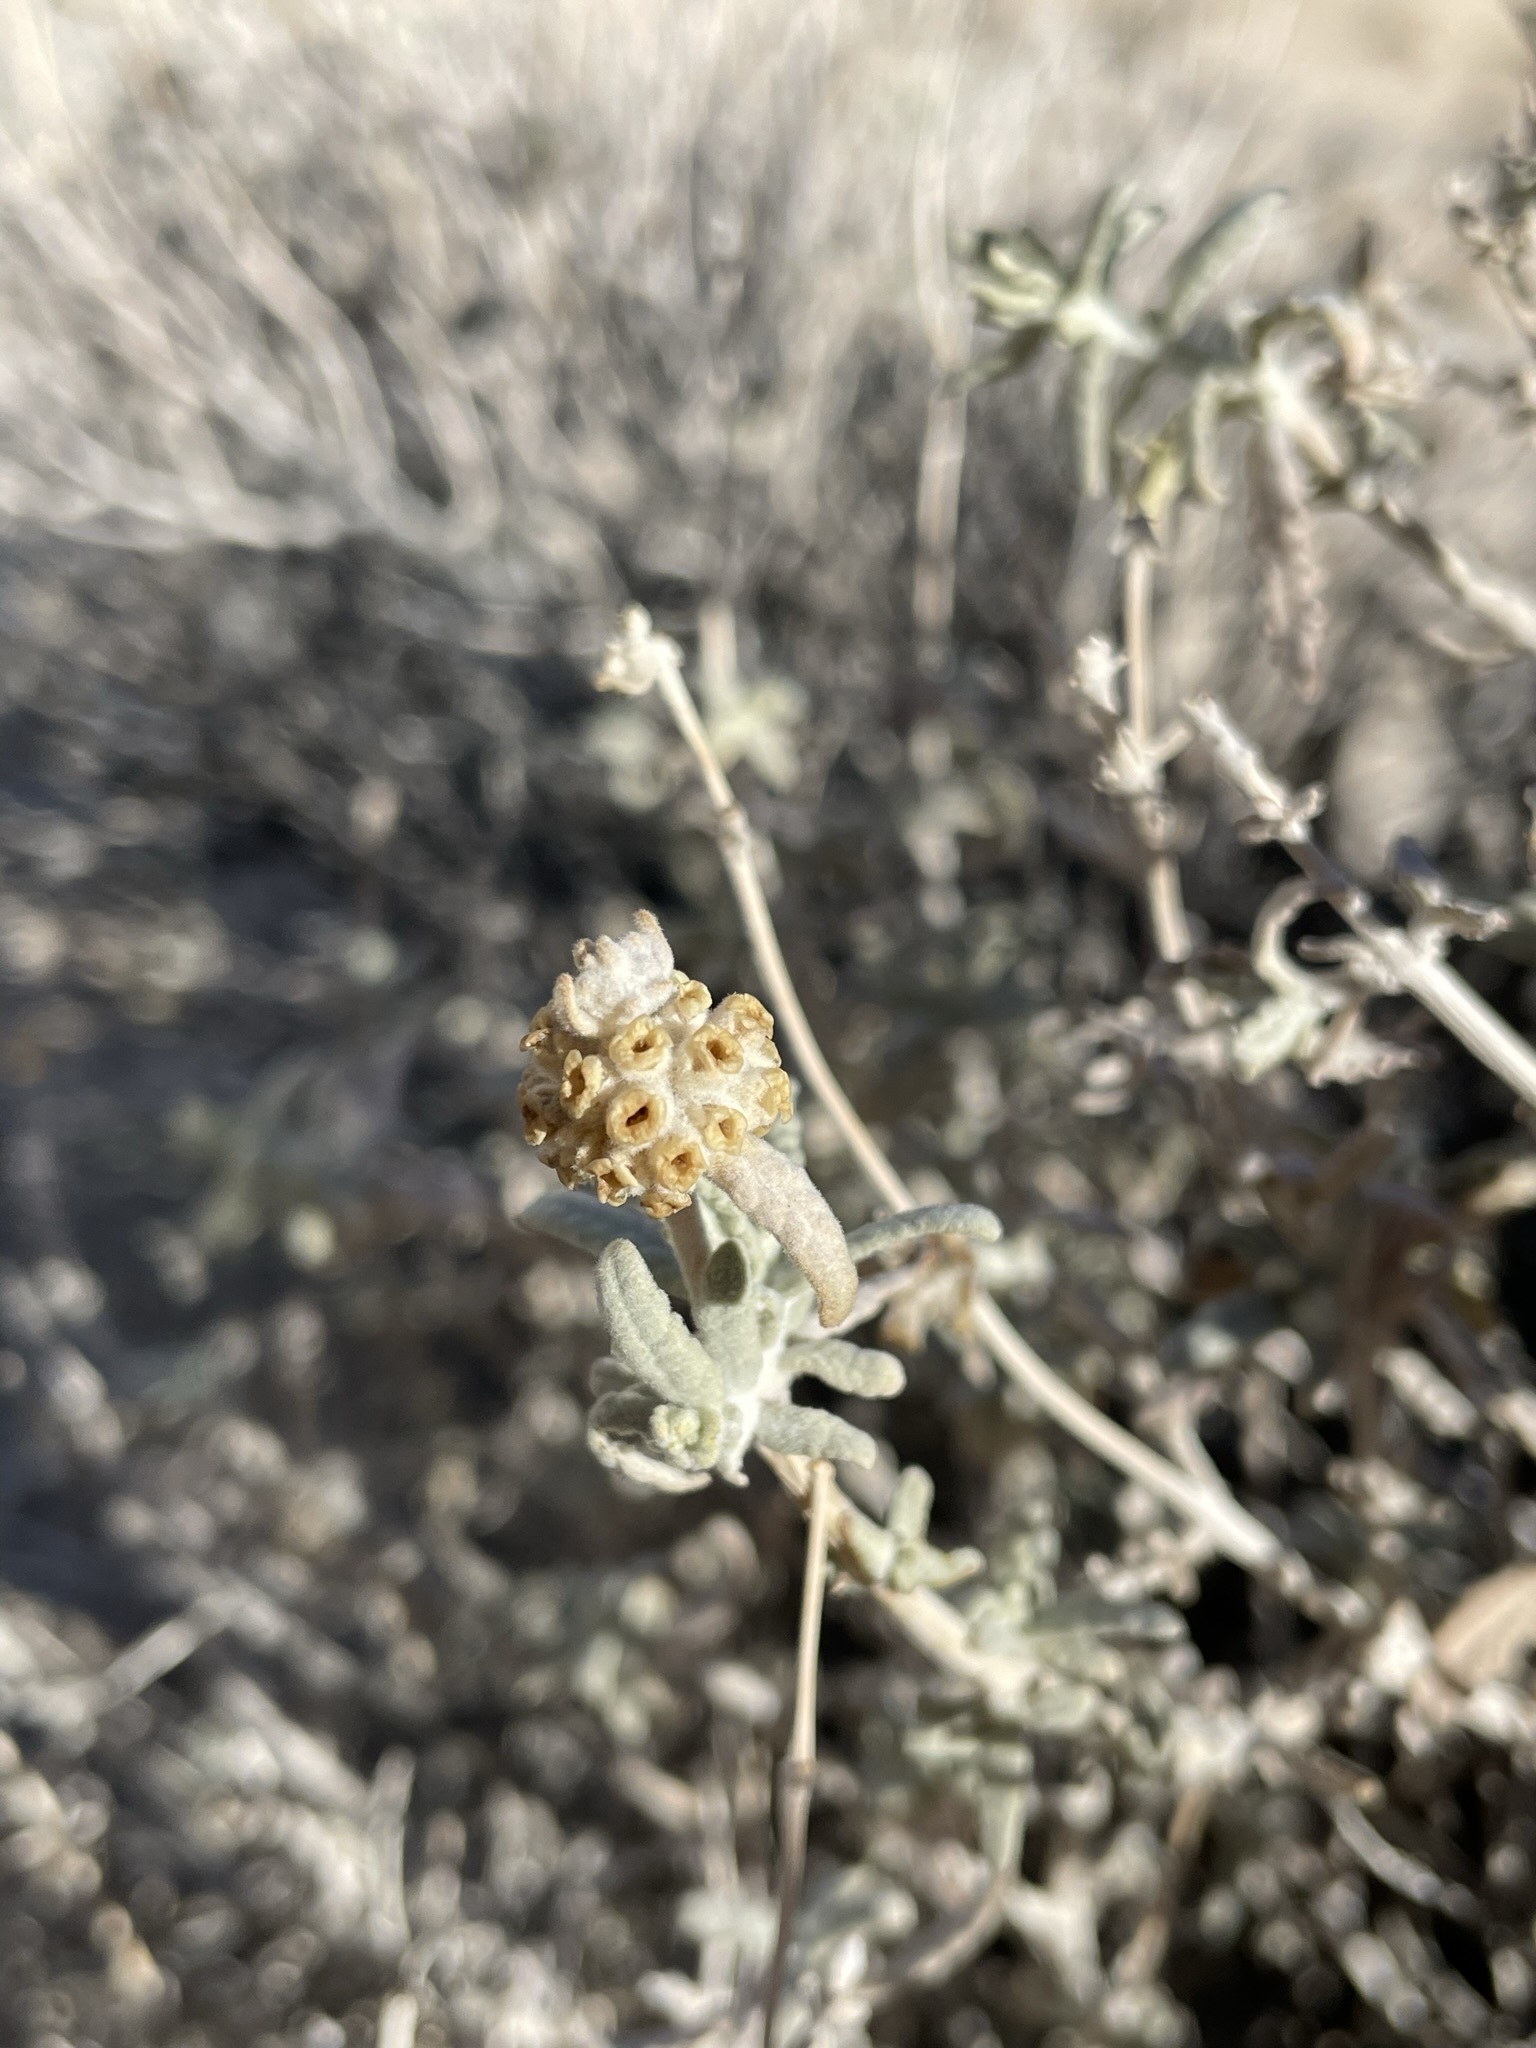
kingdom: Plantae
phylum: Tracheophyta
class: Magnoliopsida
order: Lamiales
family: Scrophulariaceae
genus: Buddleja
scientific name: Buddleja utahensis
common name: Utah butterfly-bush
